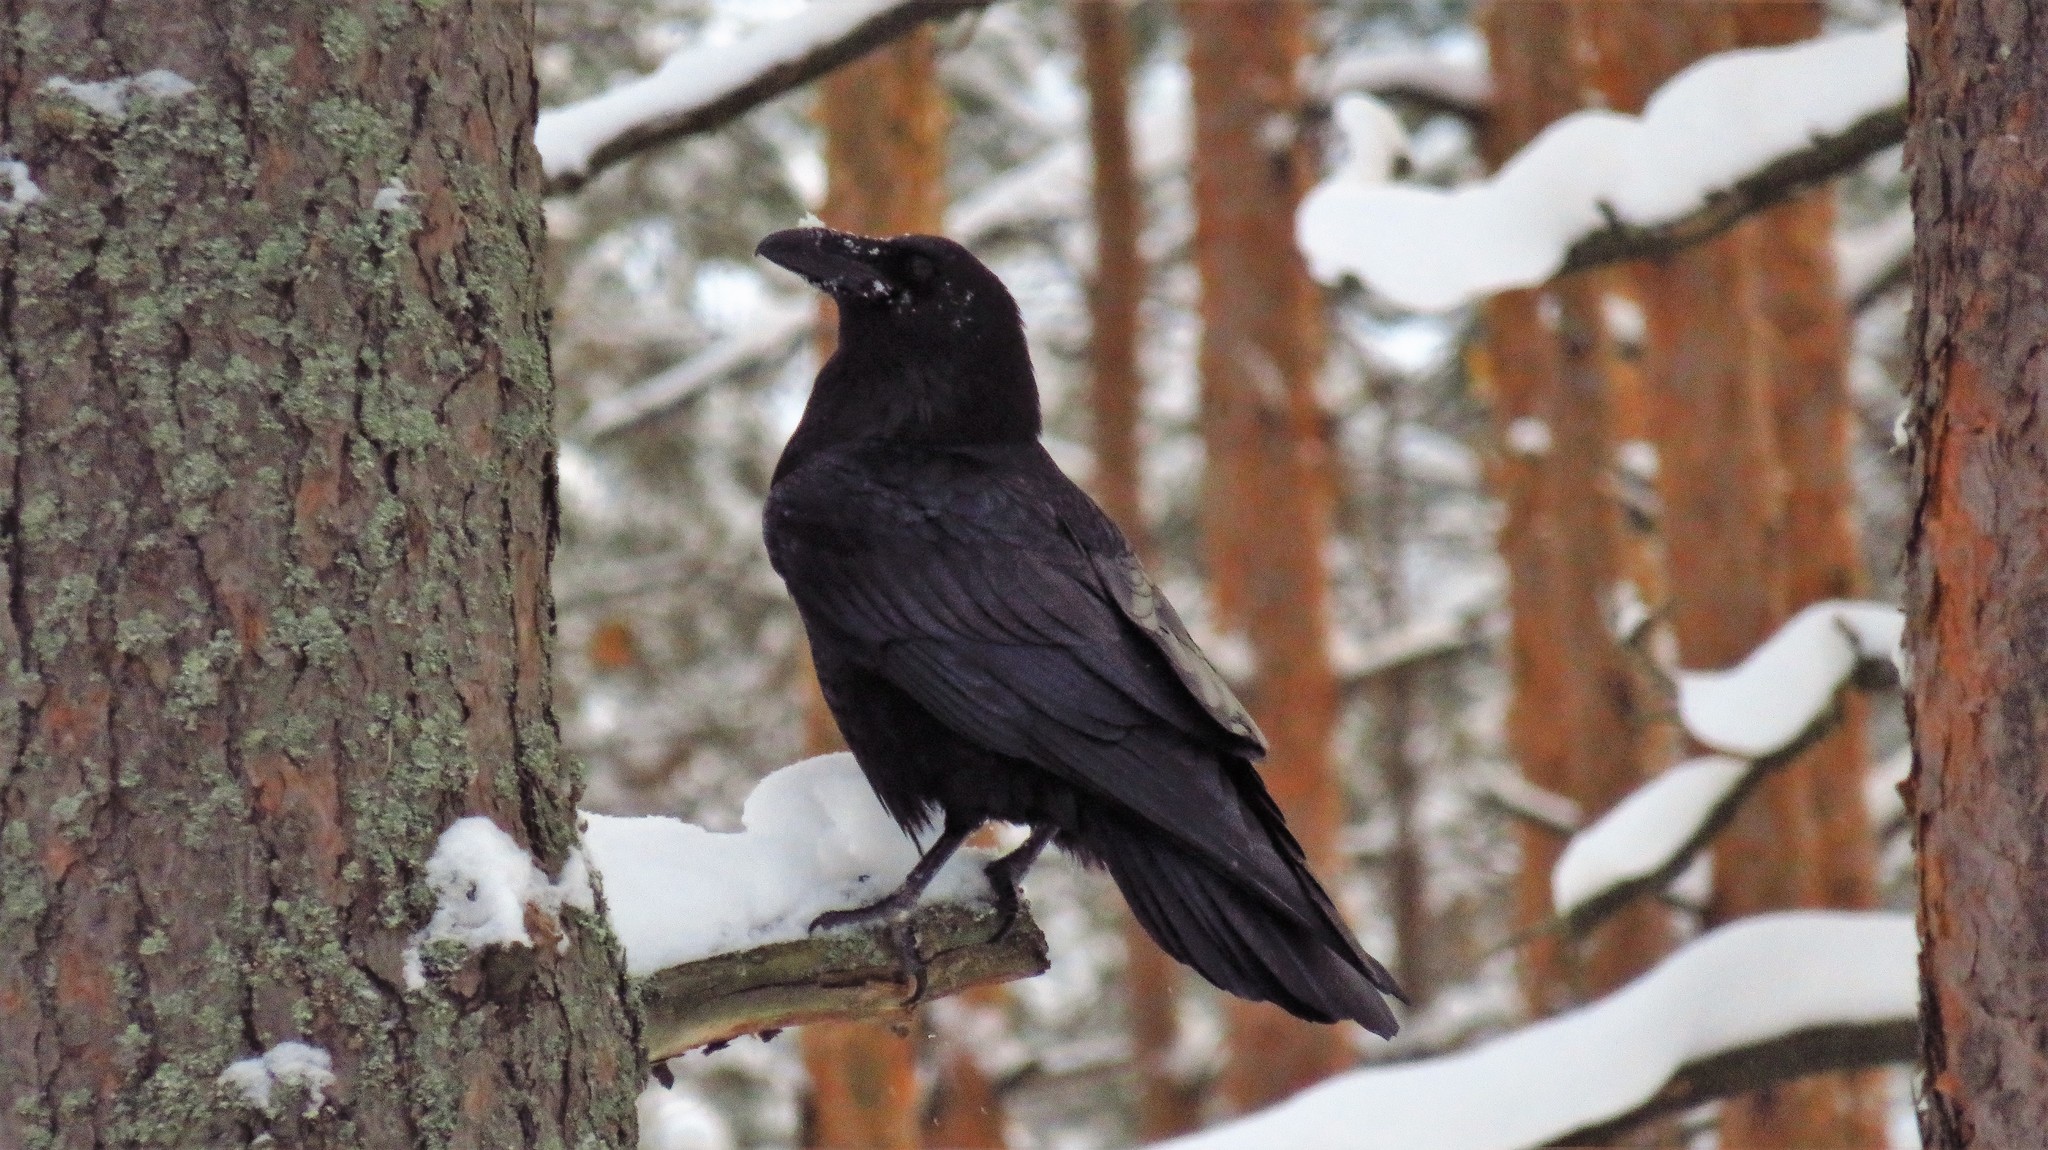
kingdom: Animalia
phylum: Chordata
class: Aves
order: Passeriformes
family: Corvidae
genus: Corvus
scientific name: Corvus corax
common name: Common raven
